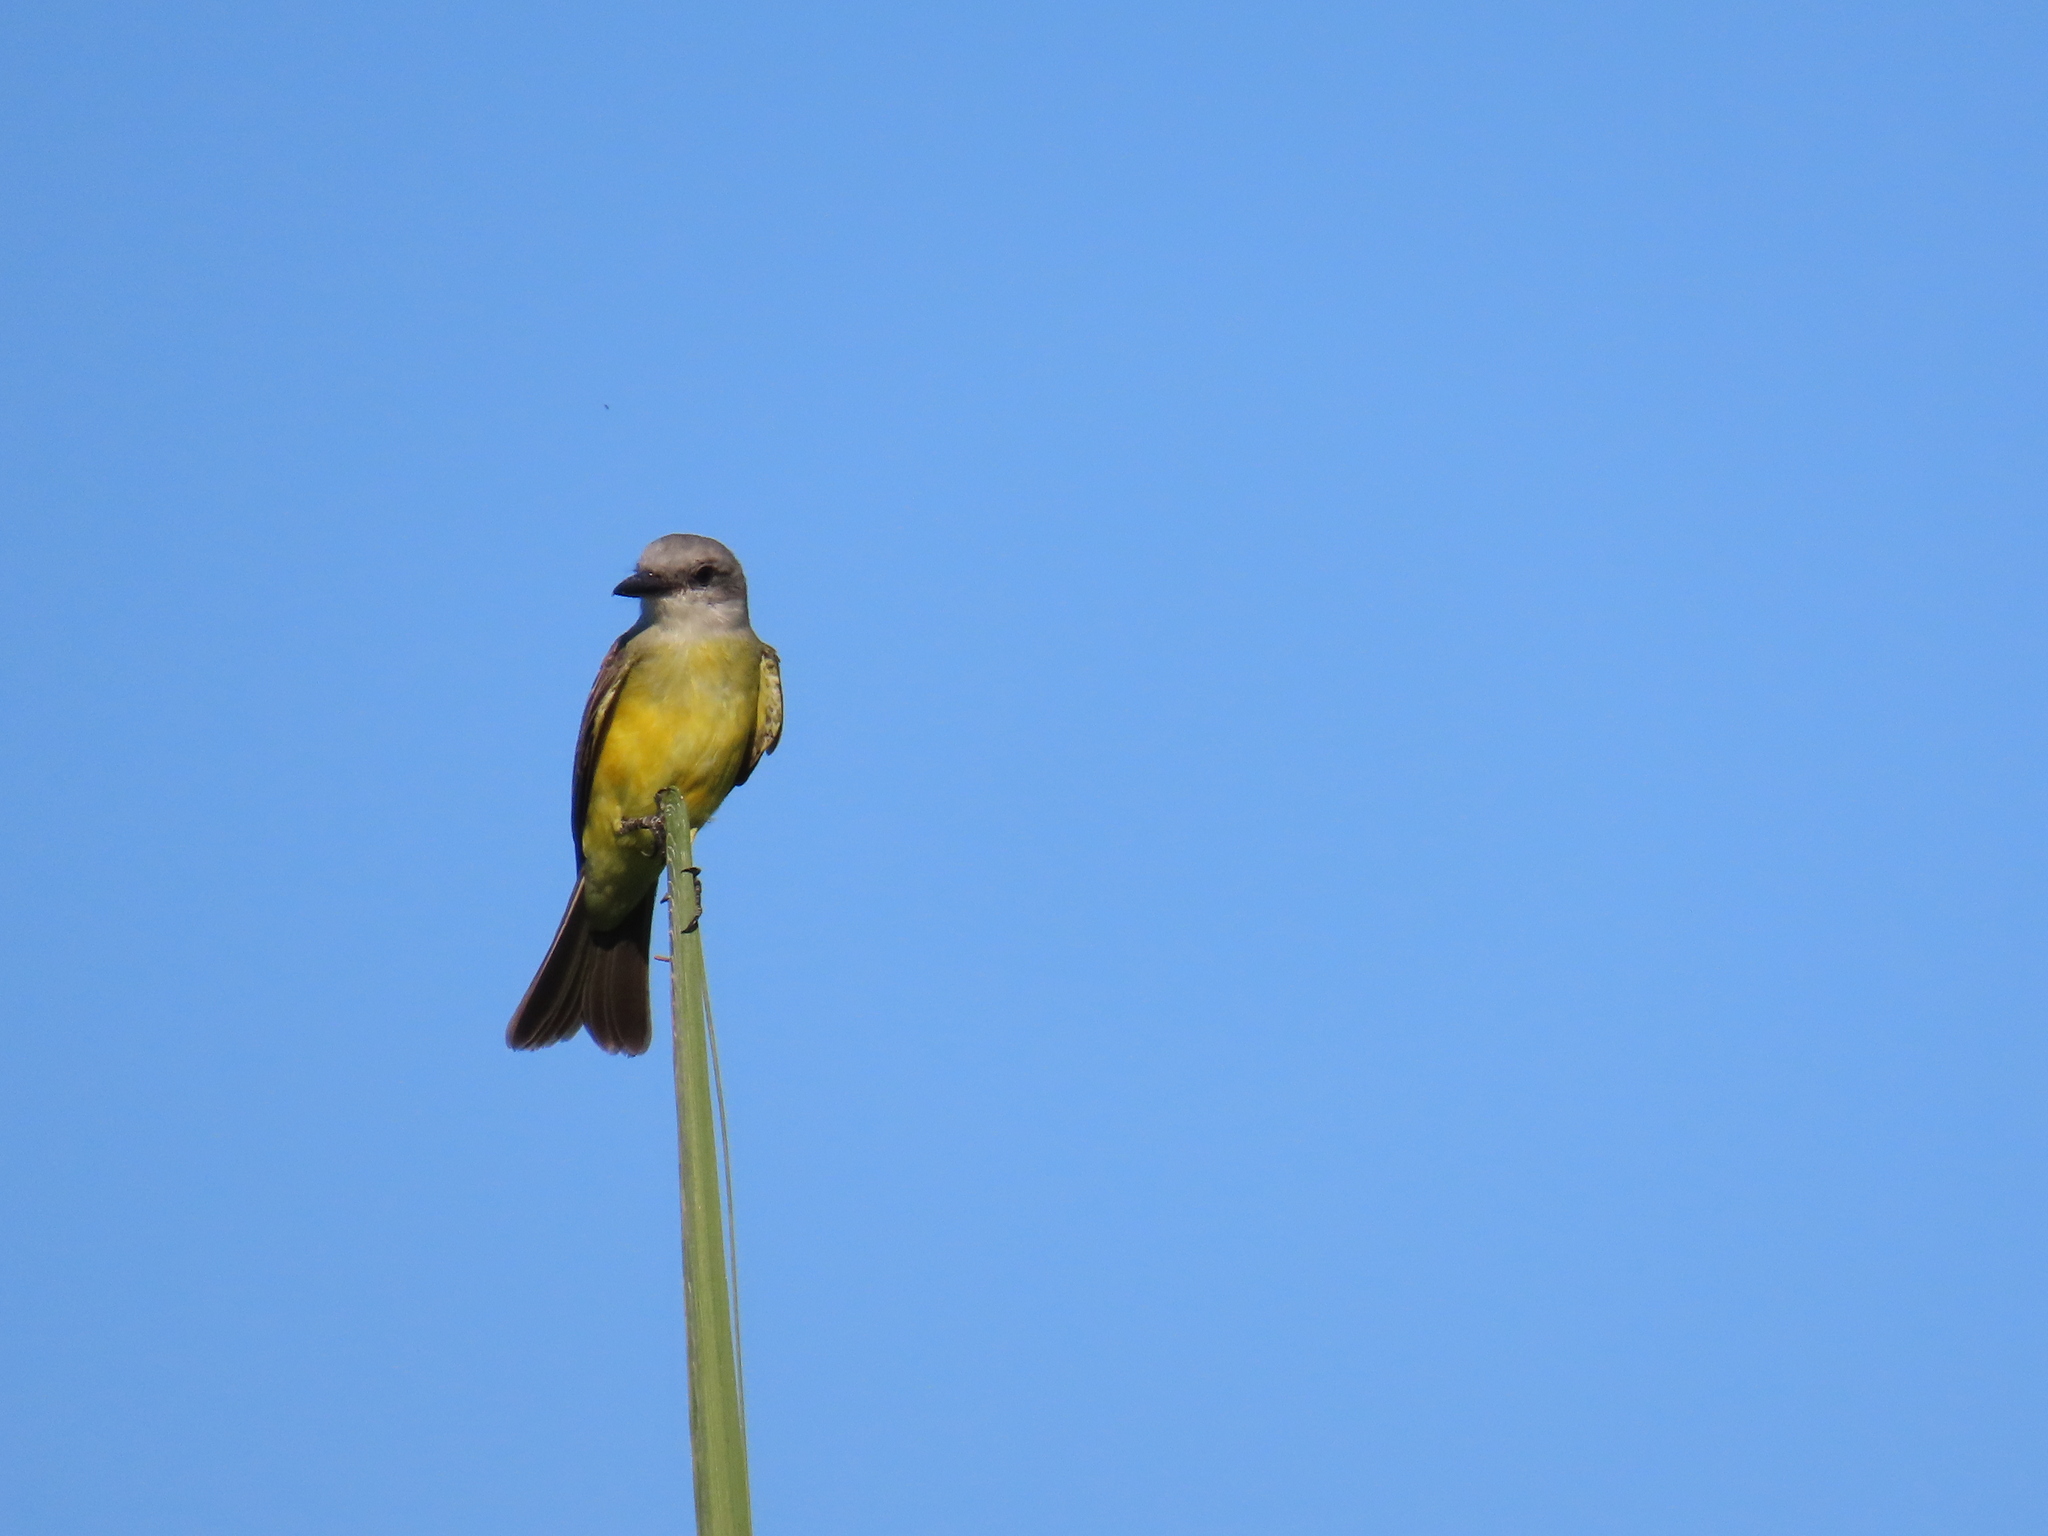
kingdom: Animalia
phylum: Chordata
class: Aves
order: Passeriformes
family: Tyrannidae
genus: Tyrannus
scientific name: Tyrannus melancholicus
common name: Tropical kingbird
